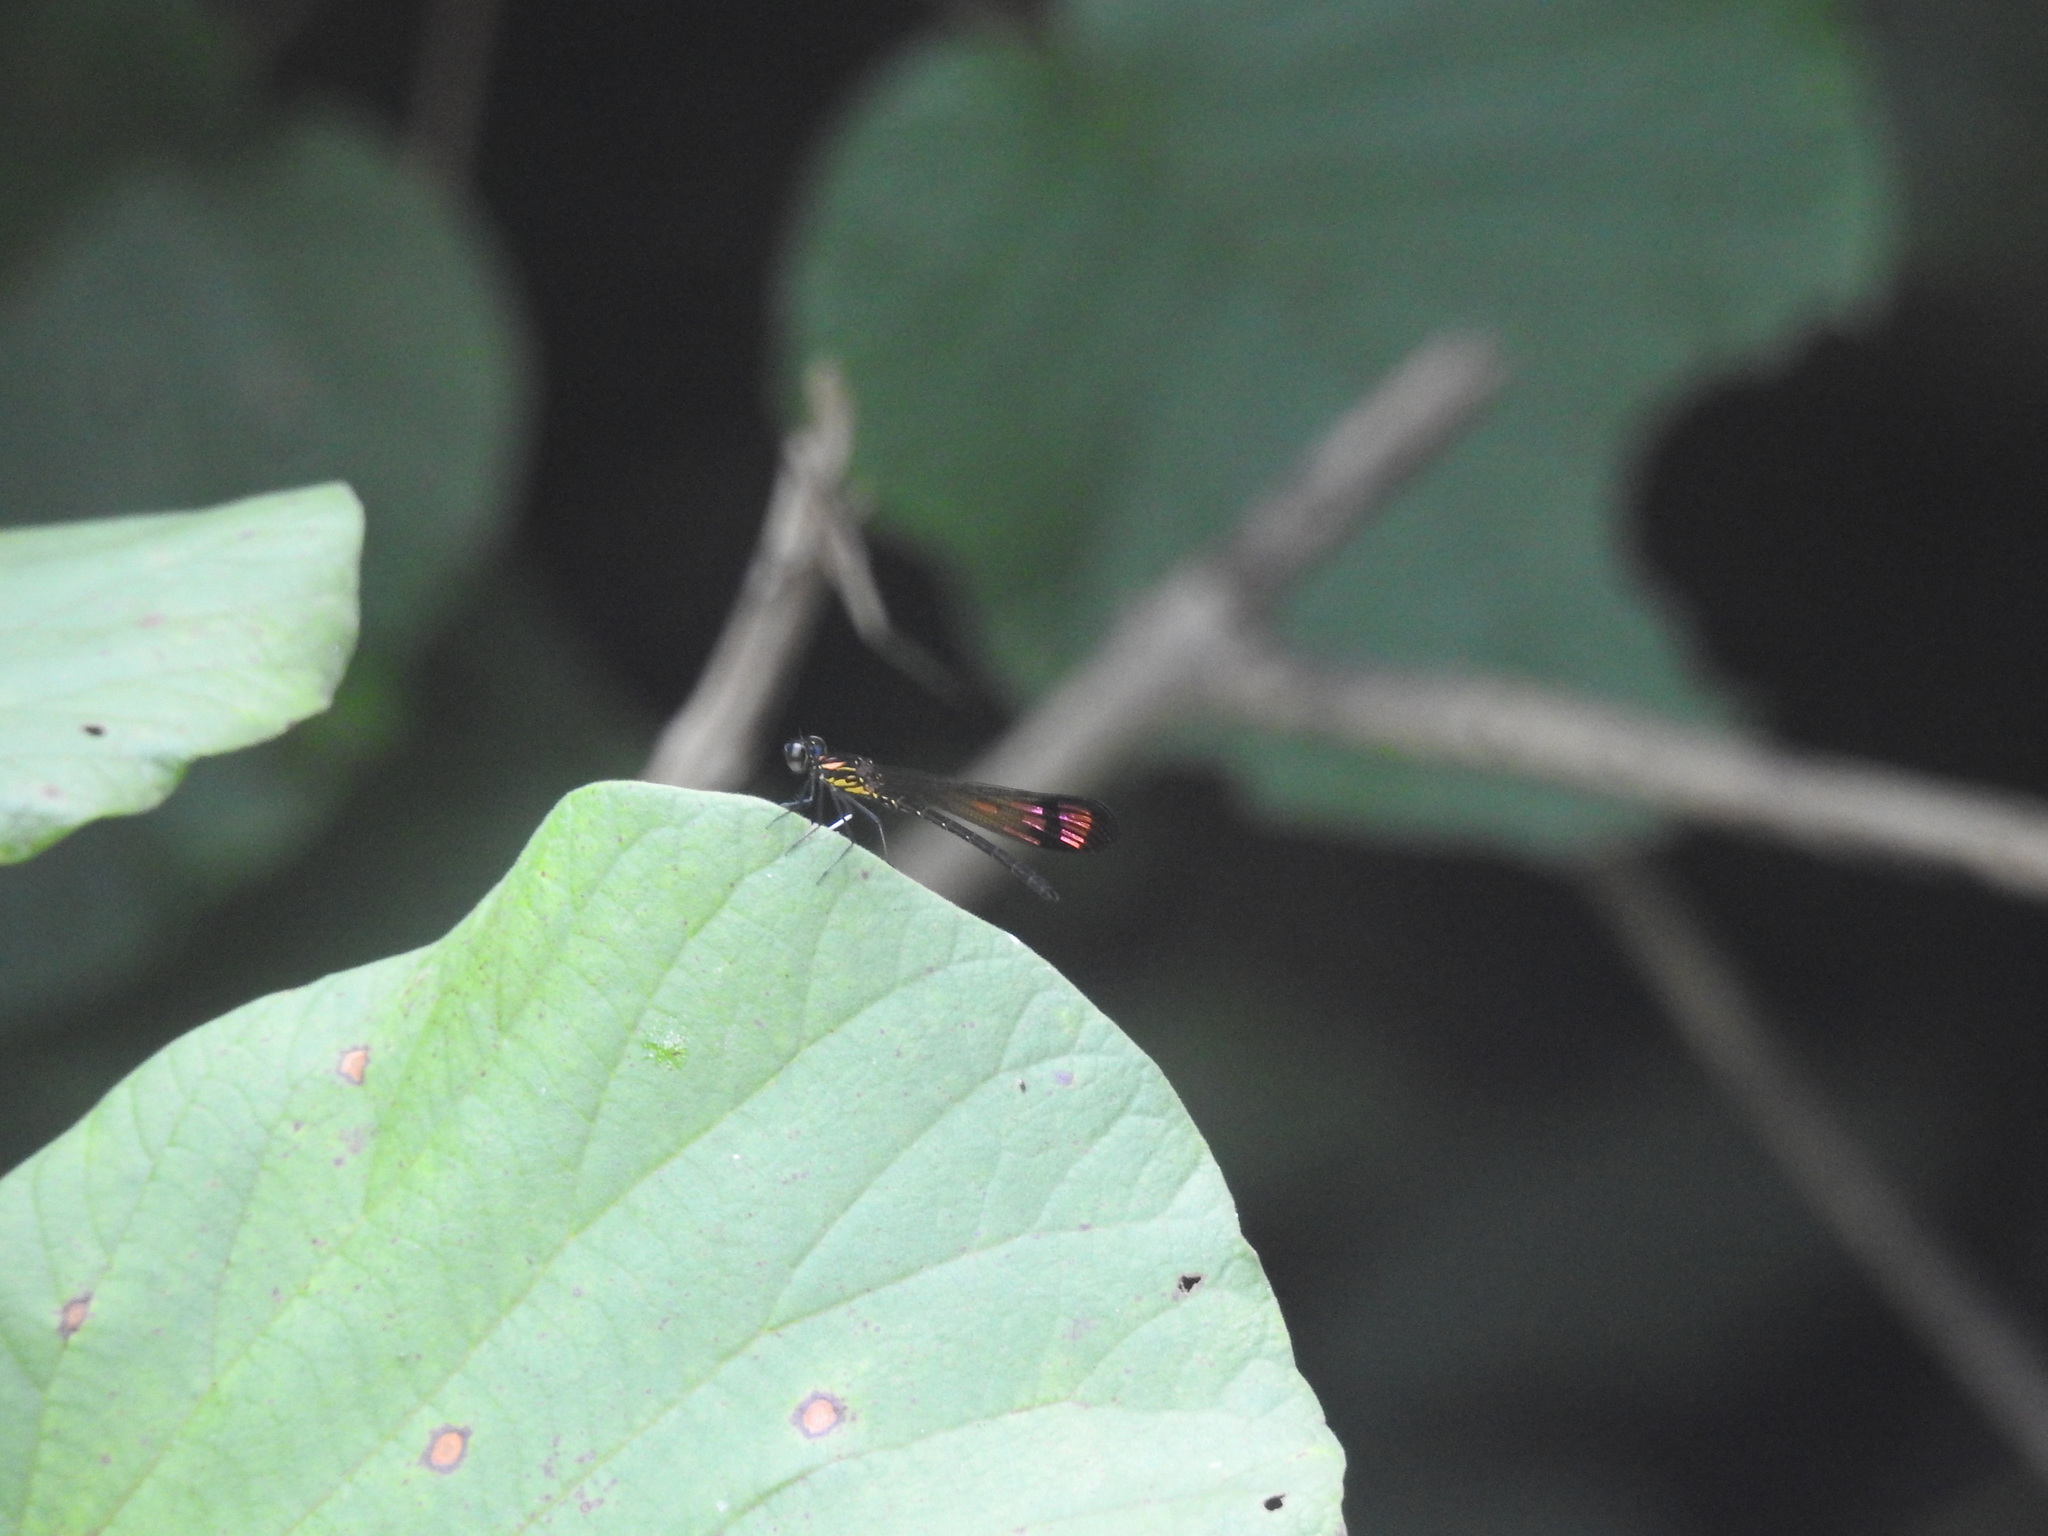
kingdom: Animalia
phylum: Arthropoda
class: Insecta
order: Odonata
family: Chlorocyphidae
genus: Heliocypha
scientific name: Heliocypha bisignata
